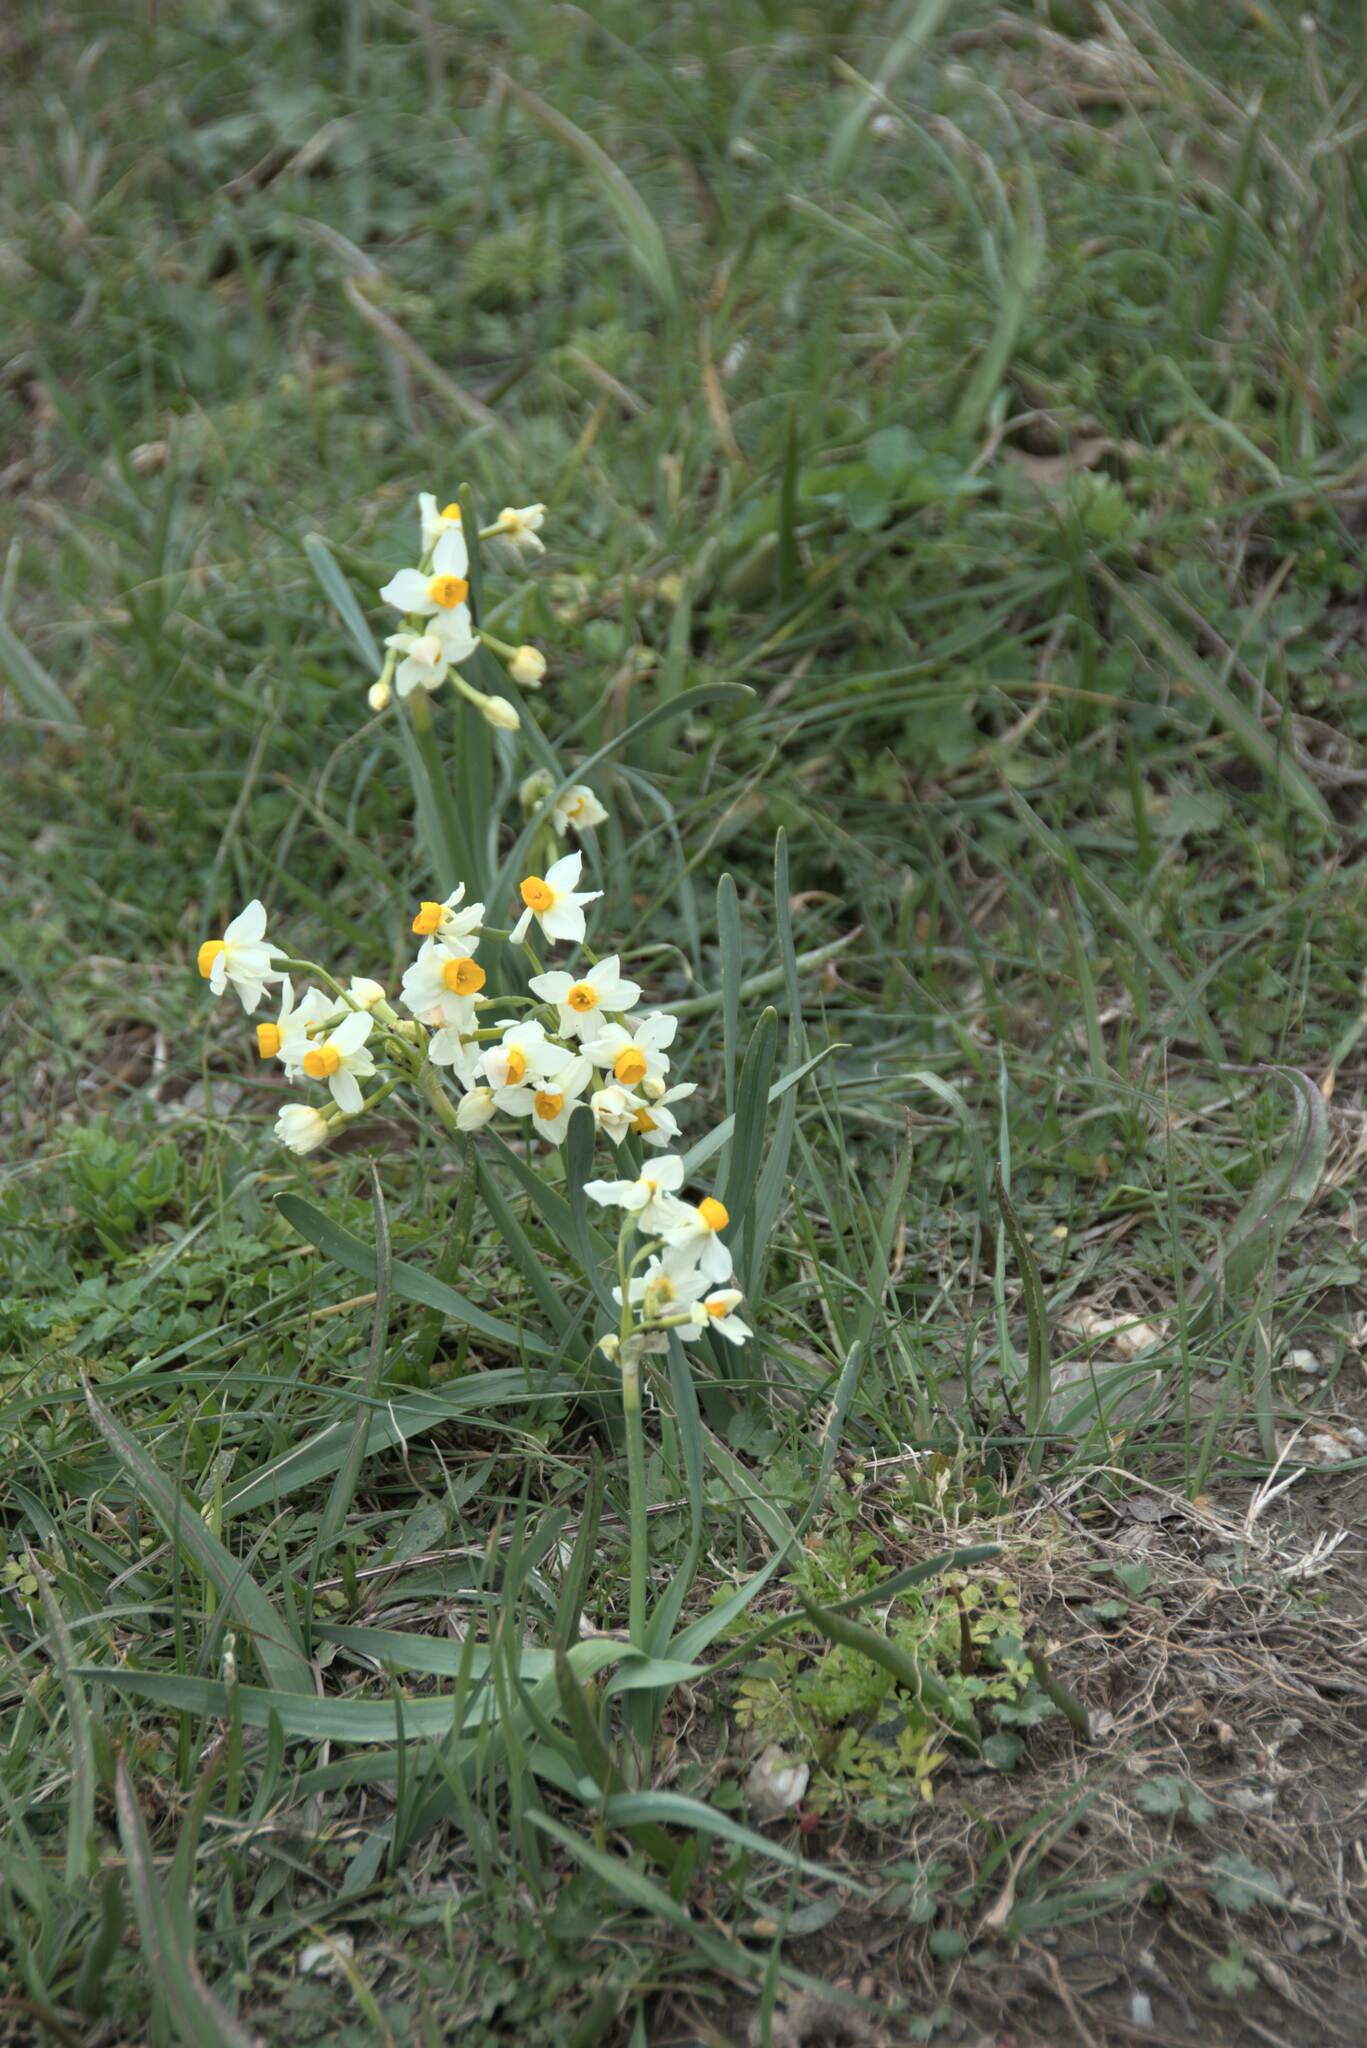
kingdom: Plantae
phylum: Tracheophyta
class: Liliopsida
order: Asparagales
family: Amaryllidaceae
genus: Narcissus
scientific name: Narcissus tazetta
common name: Bunch-flowered daffodil
